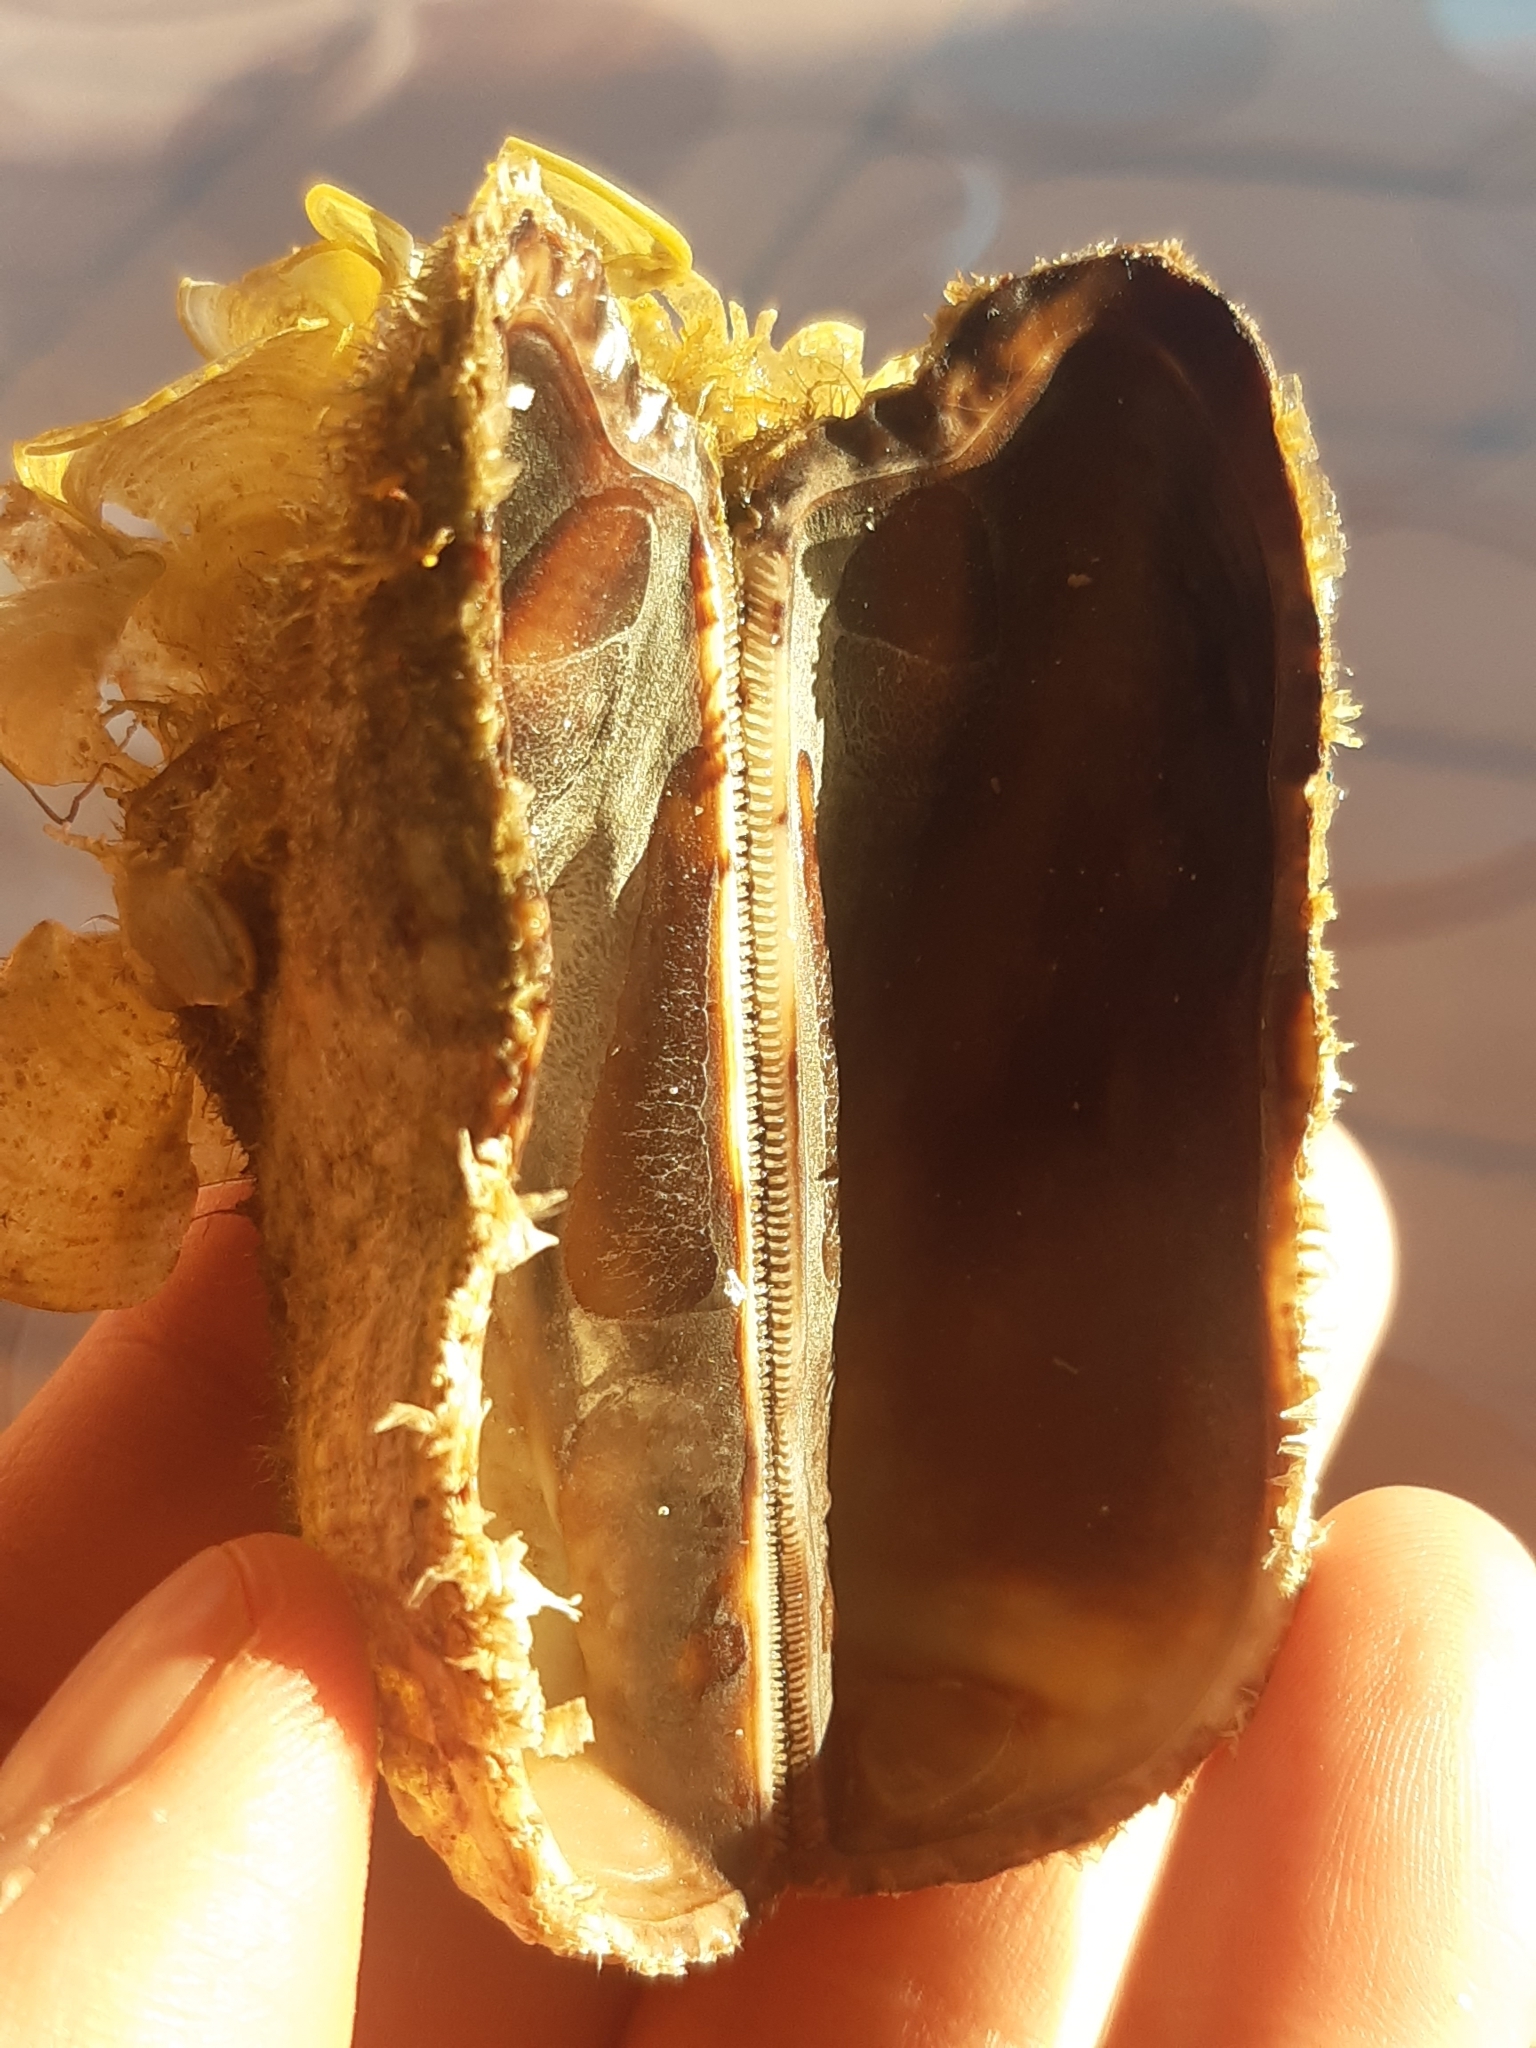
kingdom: Animalia
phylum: Mollusca
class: Bivalvia
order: Arcida
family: Arcidae
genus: Arca
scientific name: Arca noae
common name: Noah's arch
